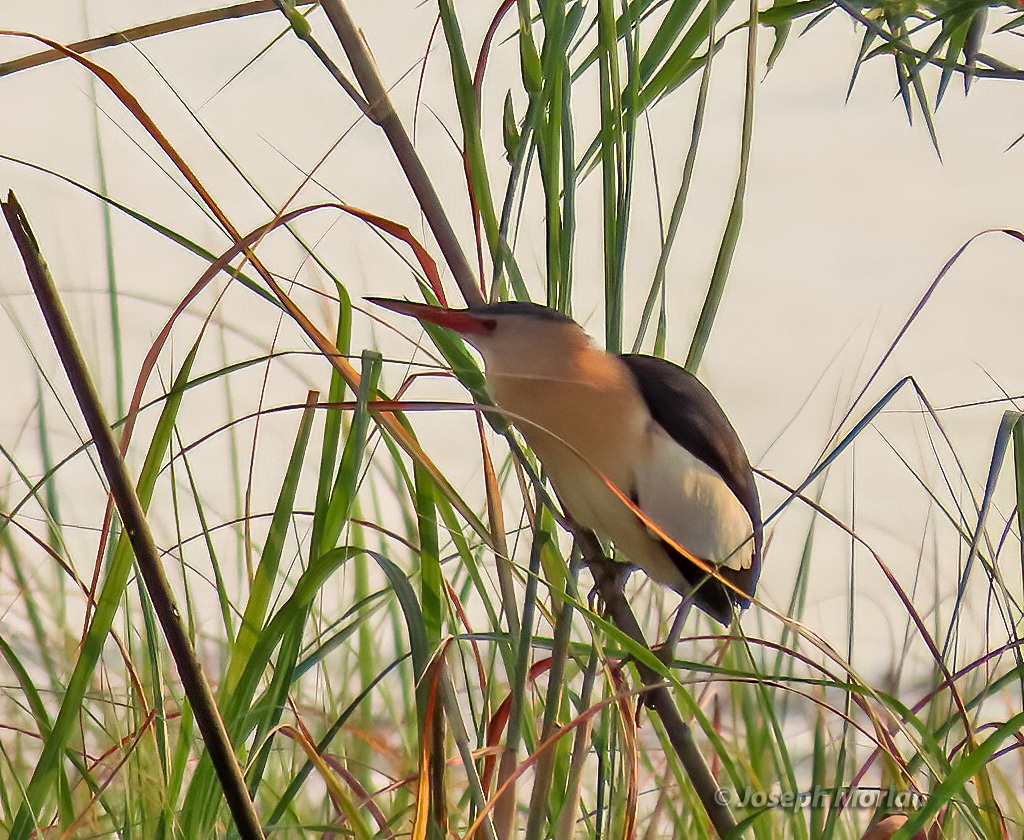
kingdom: Animalia
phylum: Chordata
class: Aves
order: Pelecaniformes
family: Ardeidae
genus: Ixobrychus
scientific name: Ixobrychus minutus
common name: Little bittern
